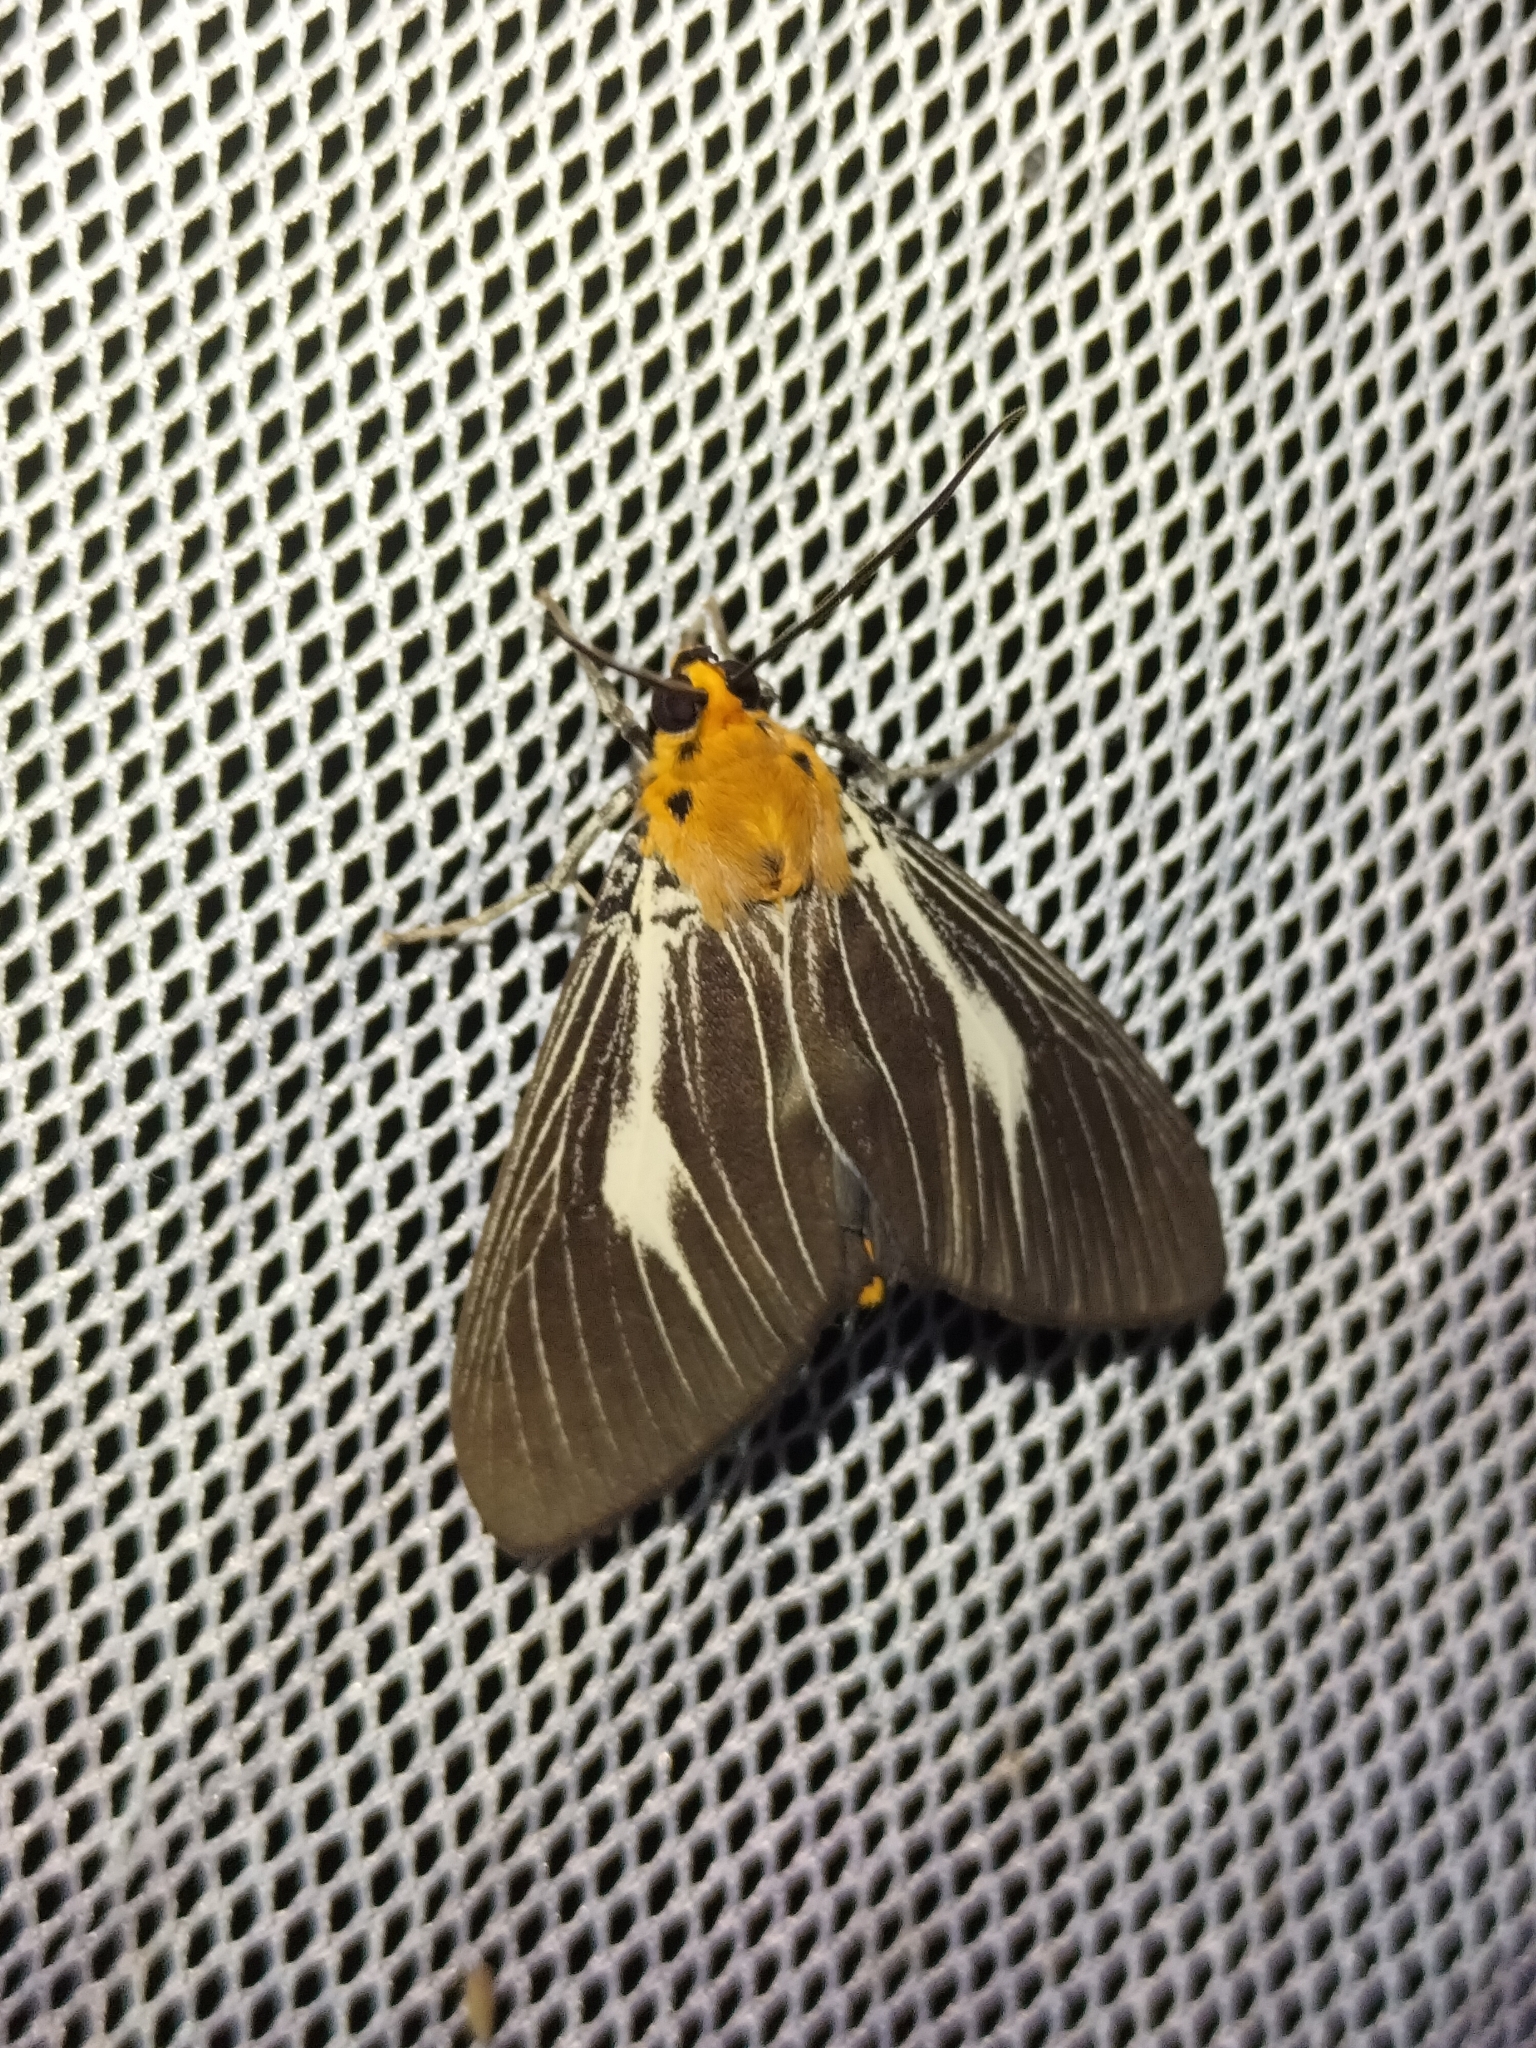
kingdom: Animalia
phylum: Arthropoda
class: Insecta
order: Lepidoptera
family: Erebidae
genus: Asota
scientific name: Asota heliconia
